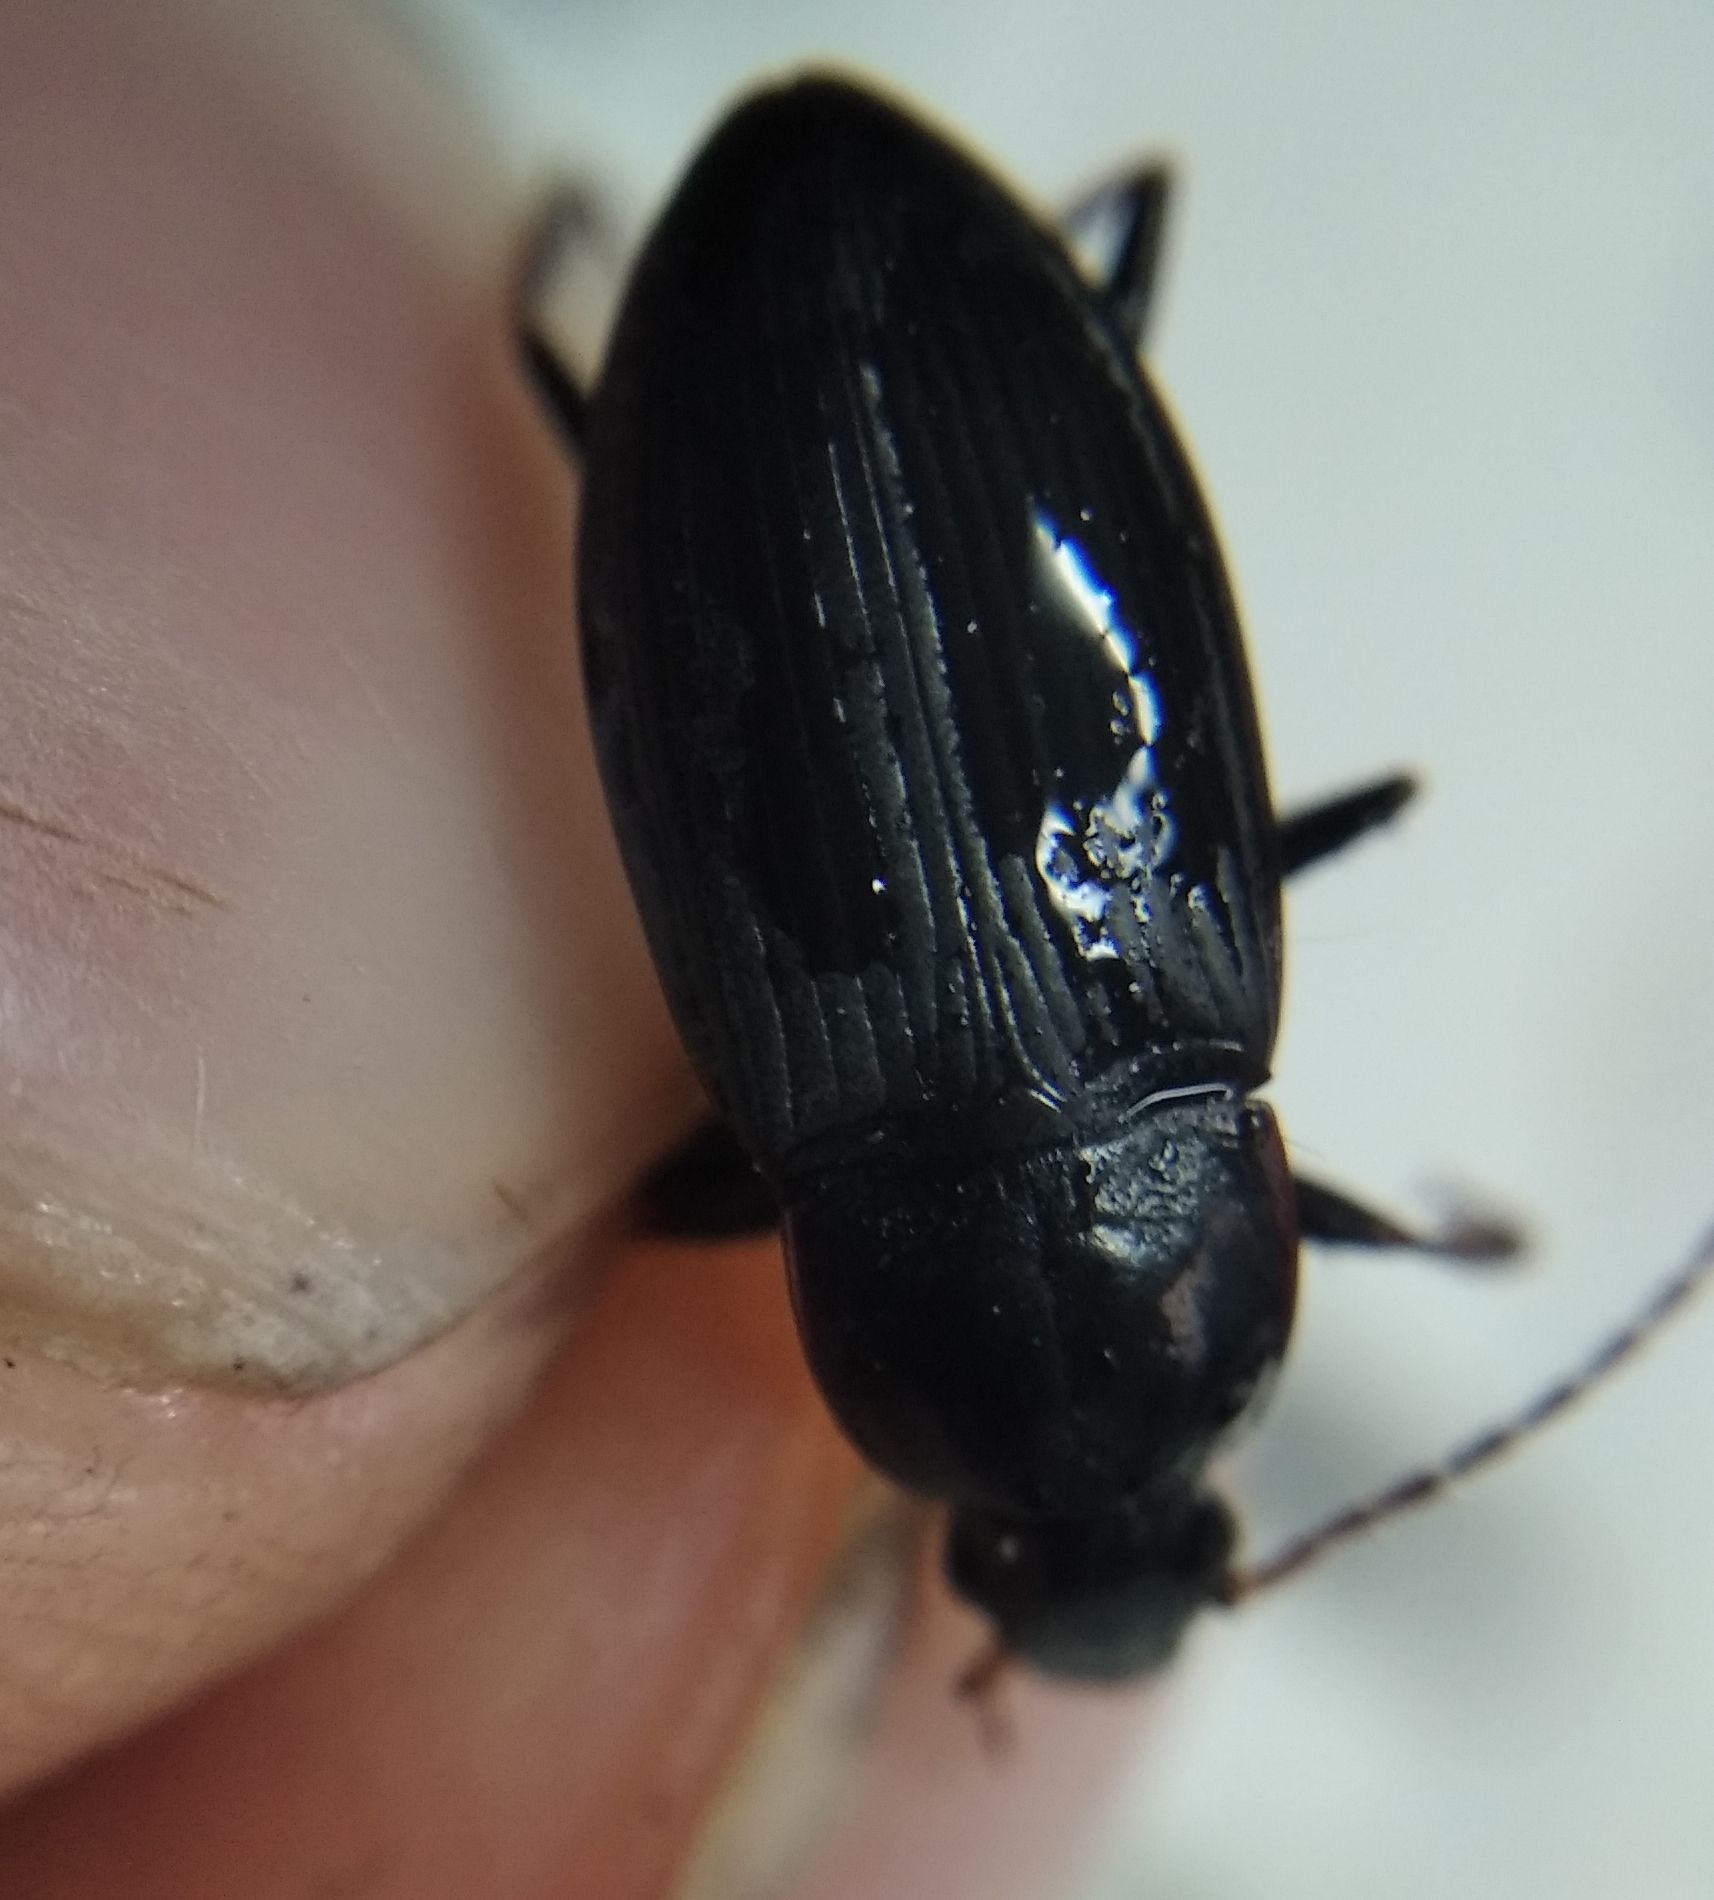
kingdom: Animalia
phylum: Arthropoda
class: Insecta
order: Coleoptera
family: Carabidae
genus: Calathus
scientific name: Calathus fuscipes
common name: Dark-footed harp ground beetle
